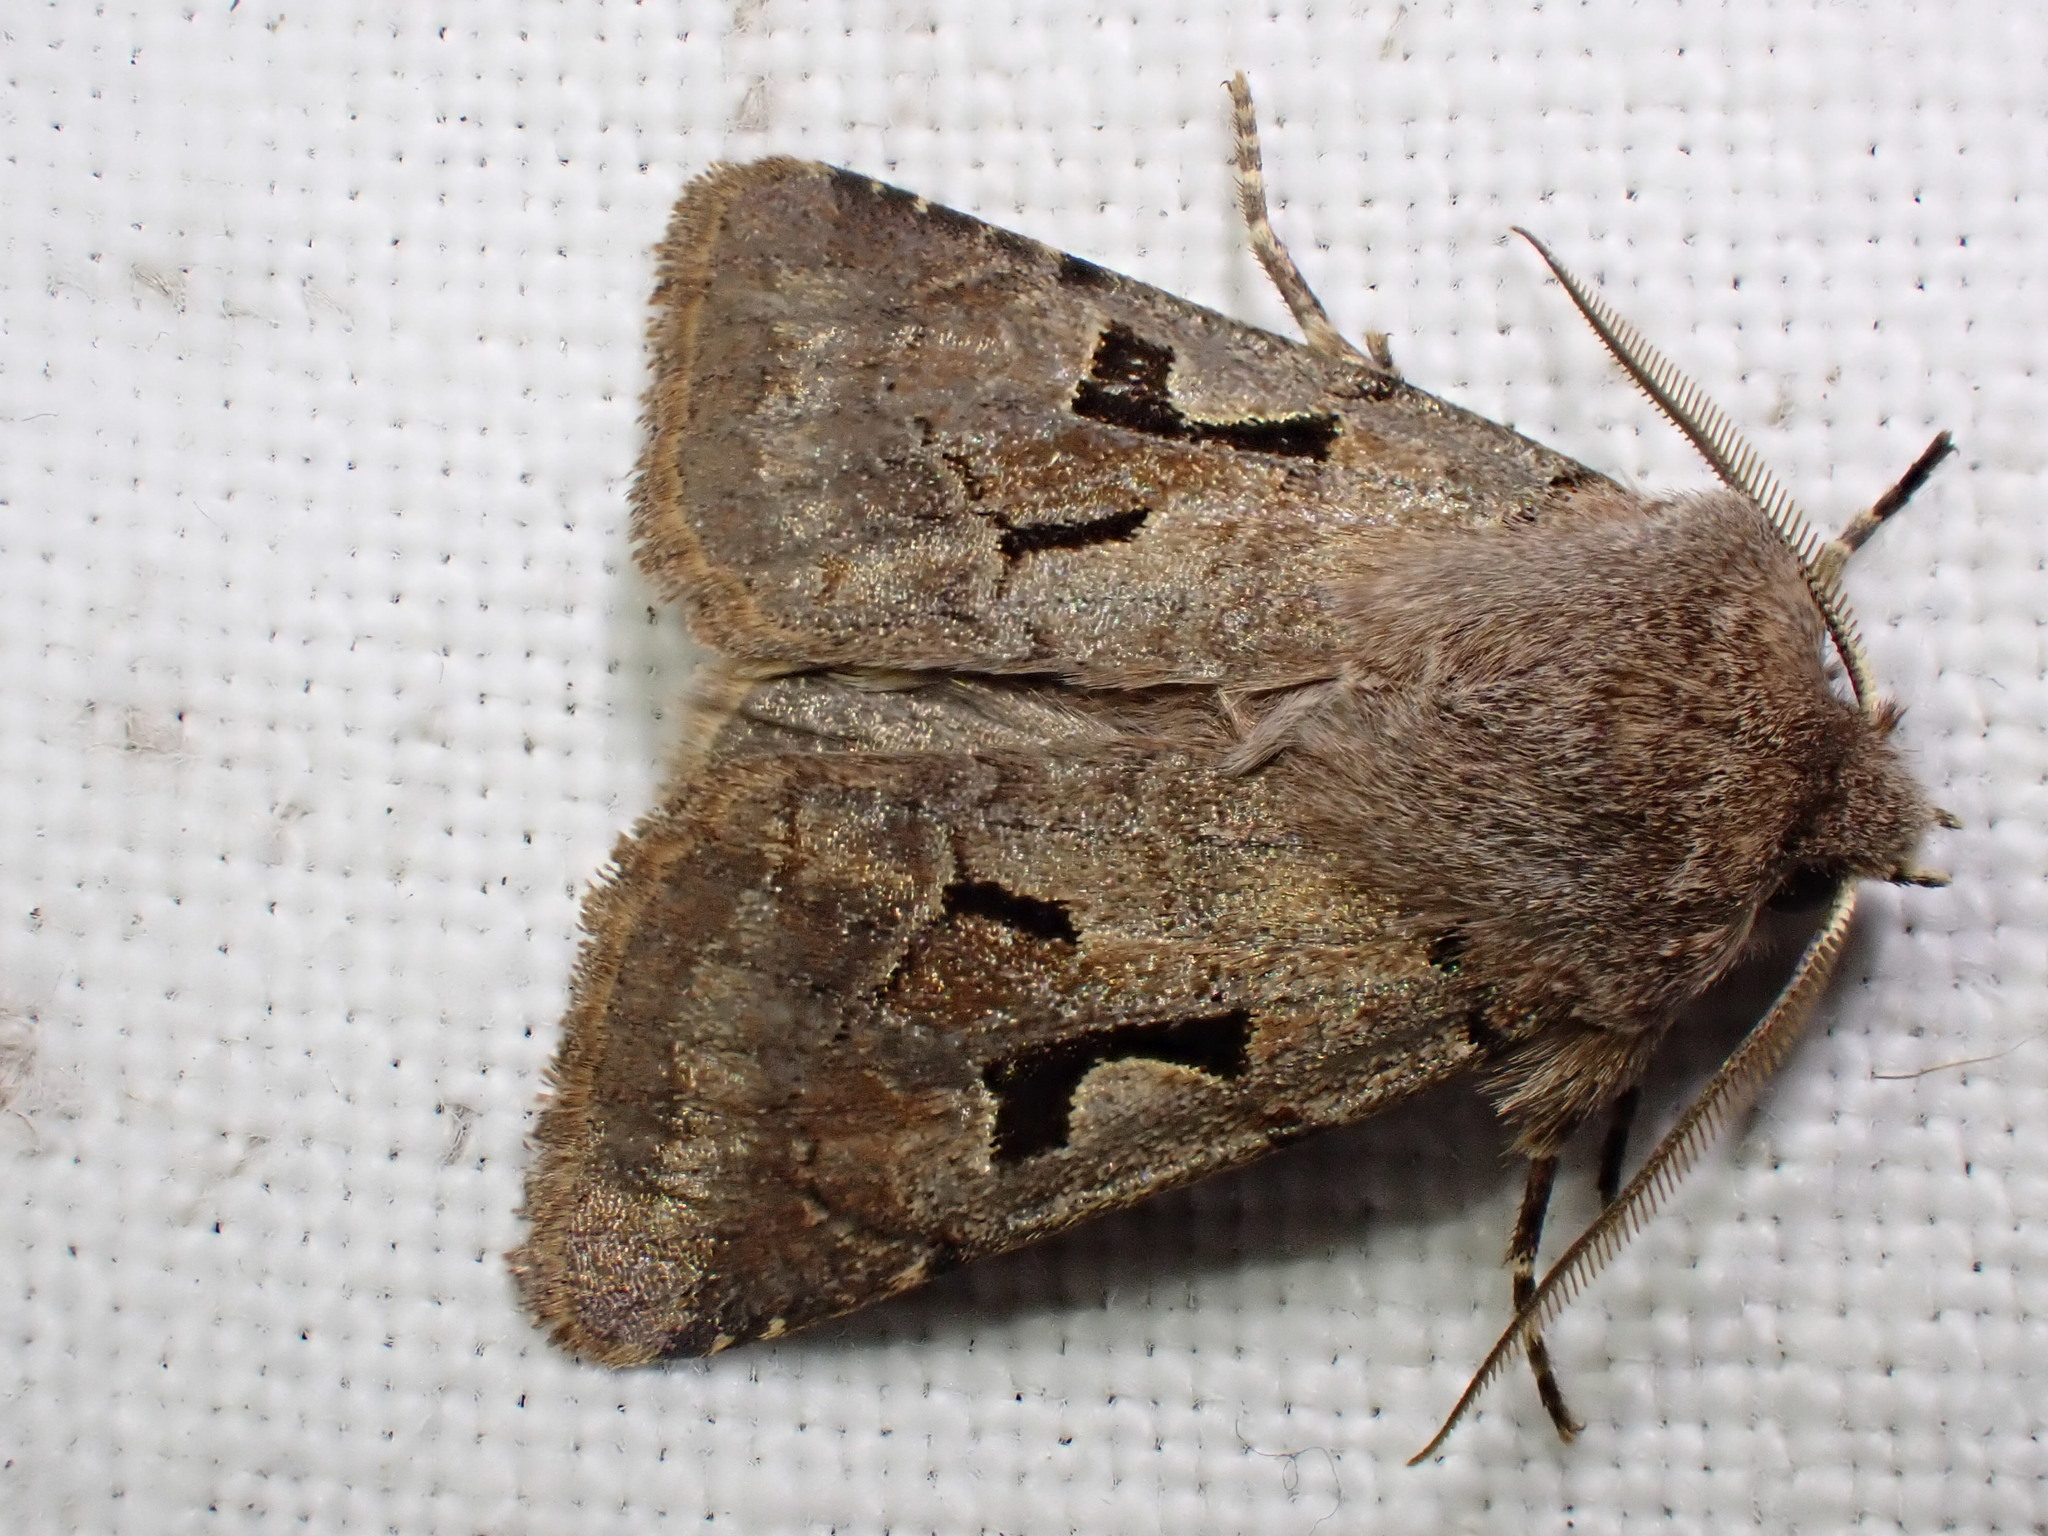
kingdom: Animalia
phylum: Arthropoda
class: Insecta
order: Lepidoptera
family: Noctuidae
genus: Orthosia
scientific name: Orthosia gothica
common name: Hebrew character
